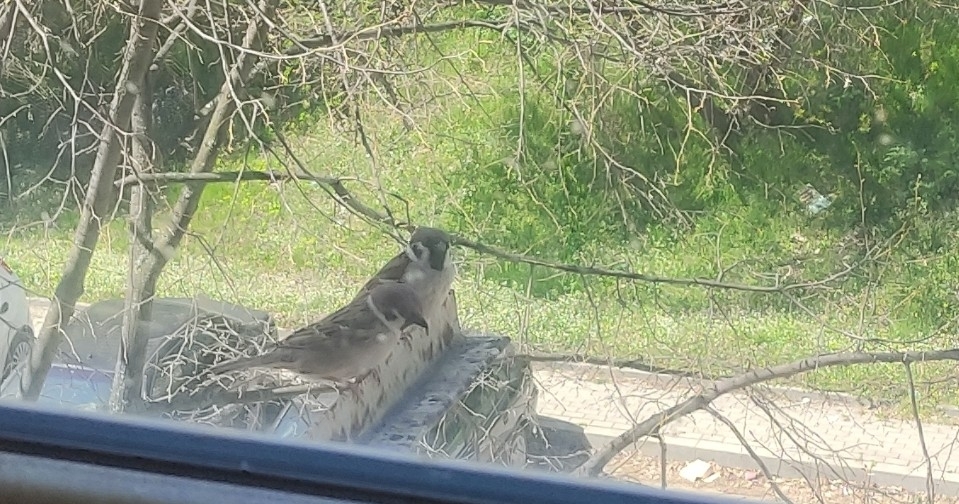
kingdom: Animalia
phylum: Chordata
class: Aves
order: Passeriformes
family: Passeridae
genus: Passer
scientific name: Passer montanus
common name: Eurasian tree sparrow
